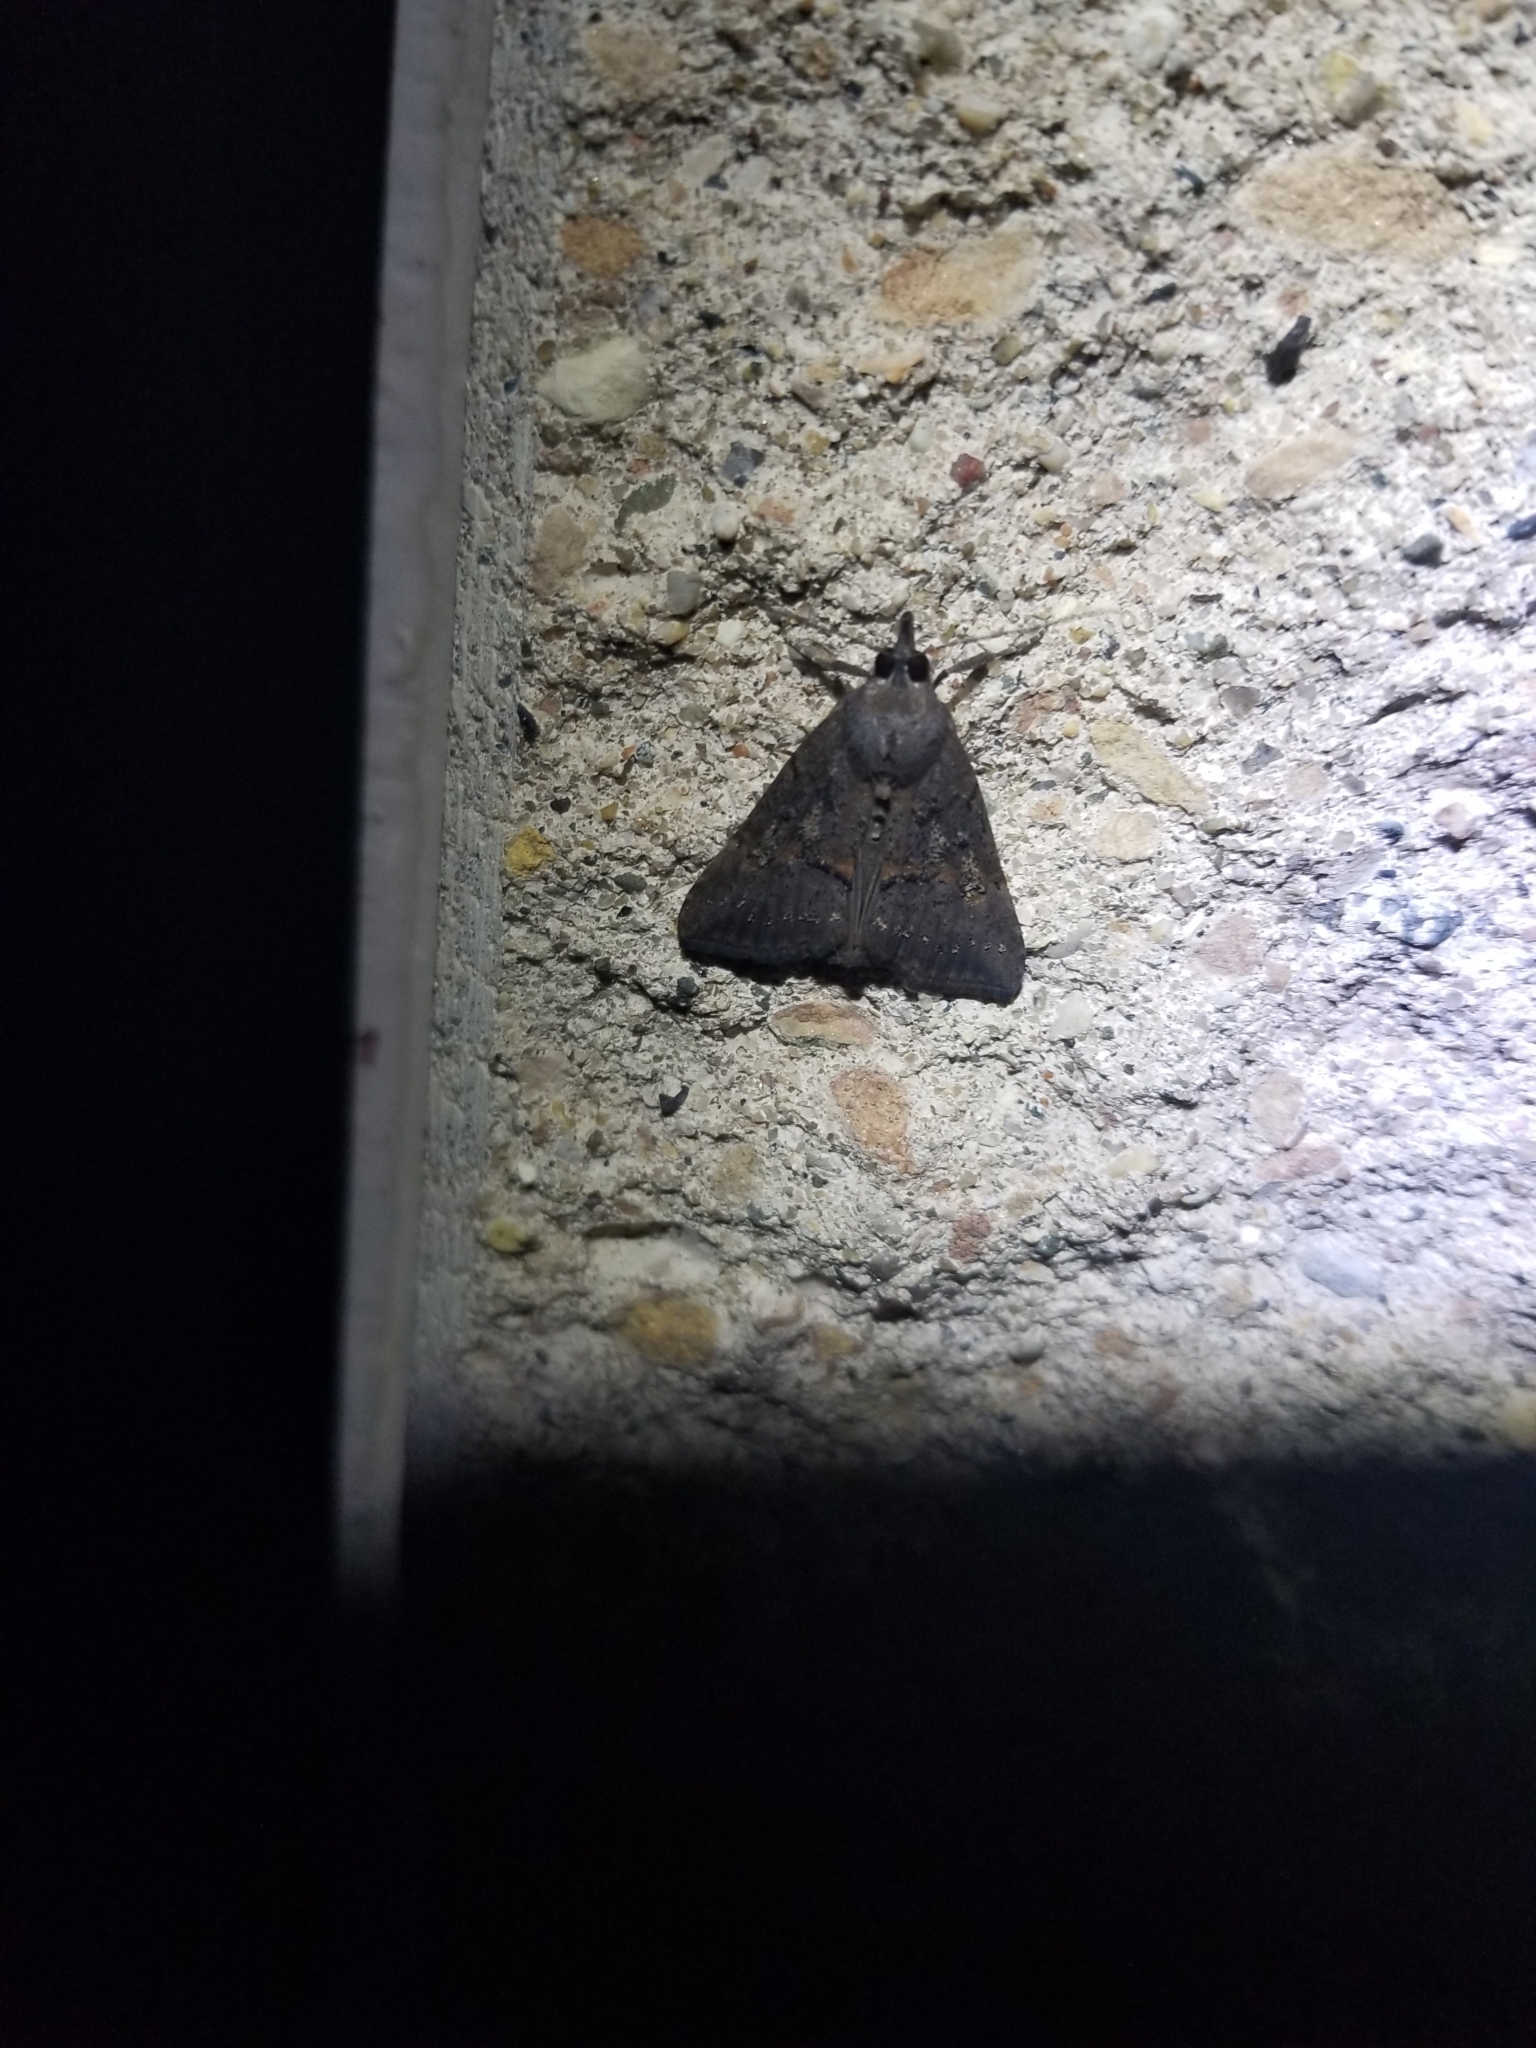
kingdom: Animalia
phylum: Arthropoda
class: Insecta
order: Lepidoptera
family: Erebidae
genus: Hypena
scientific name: Hypena scabra
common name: Green cloverworm
